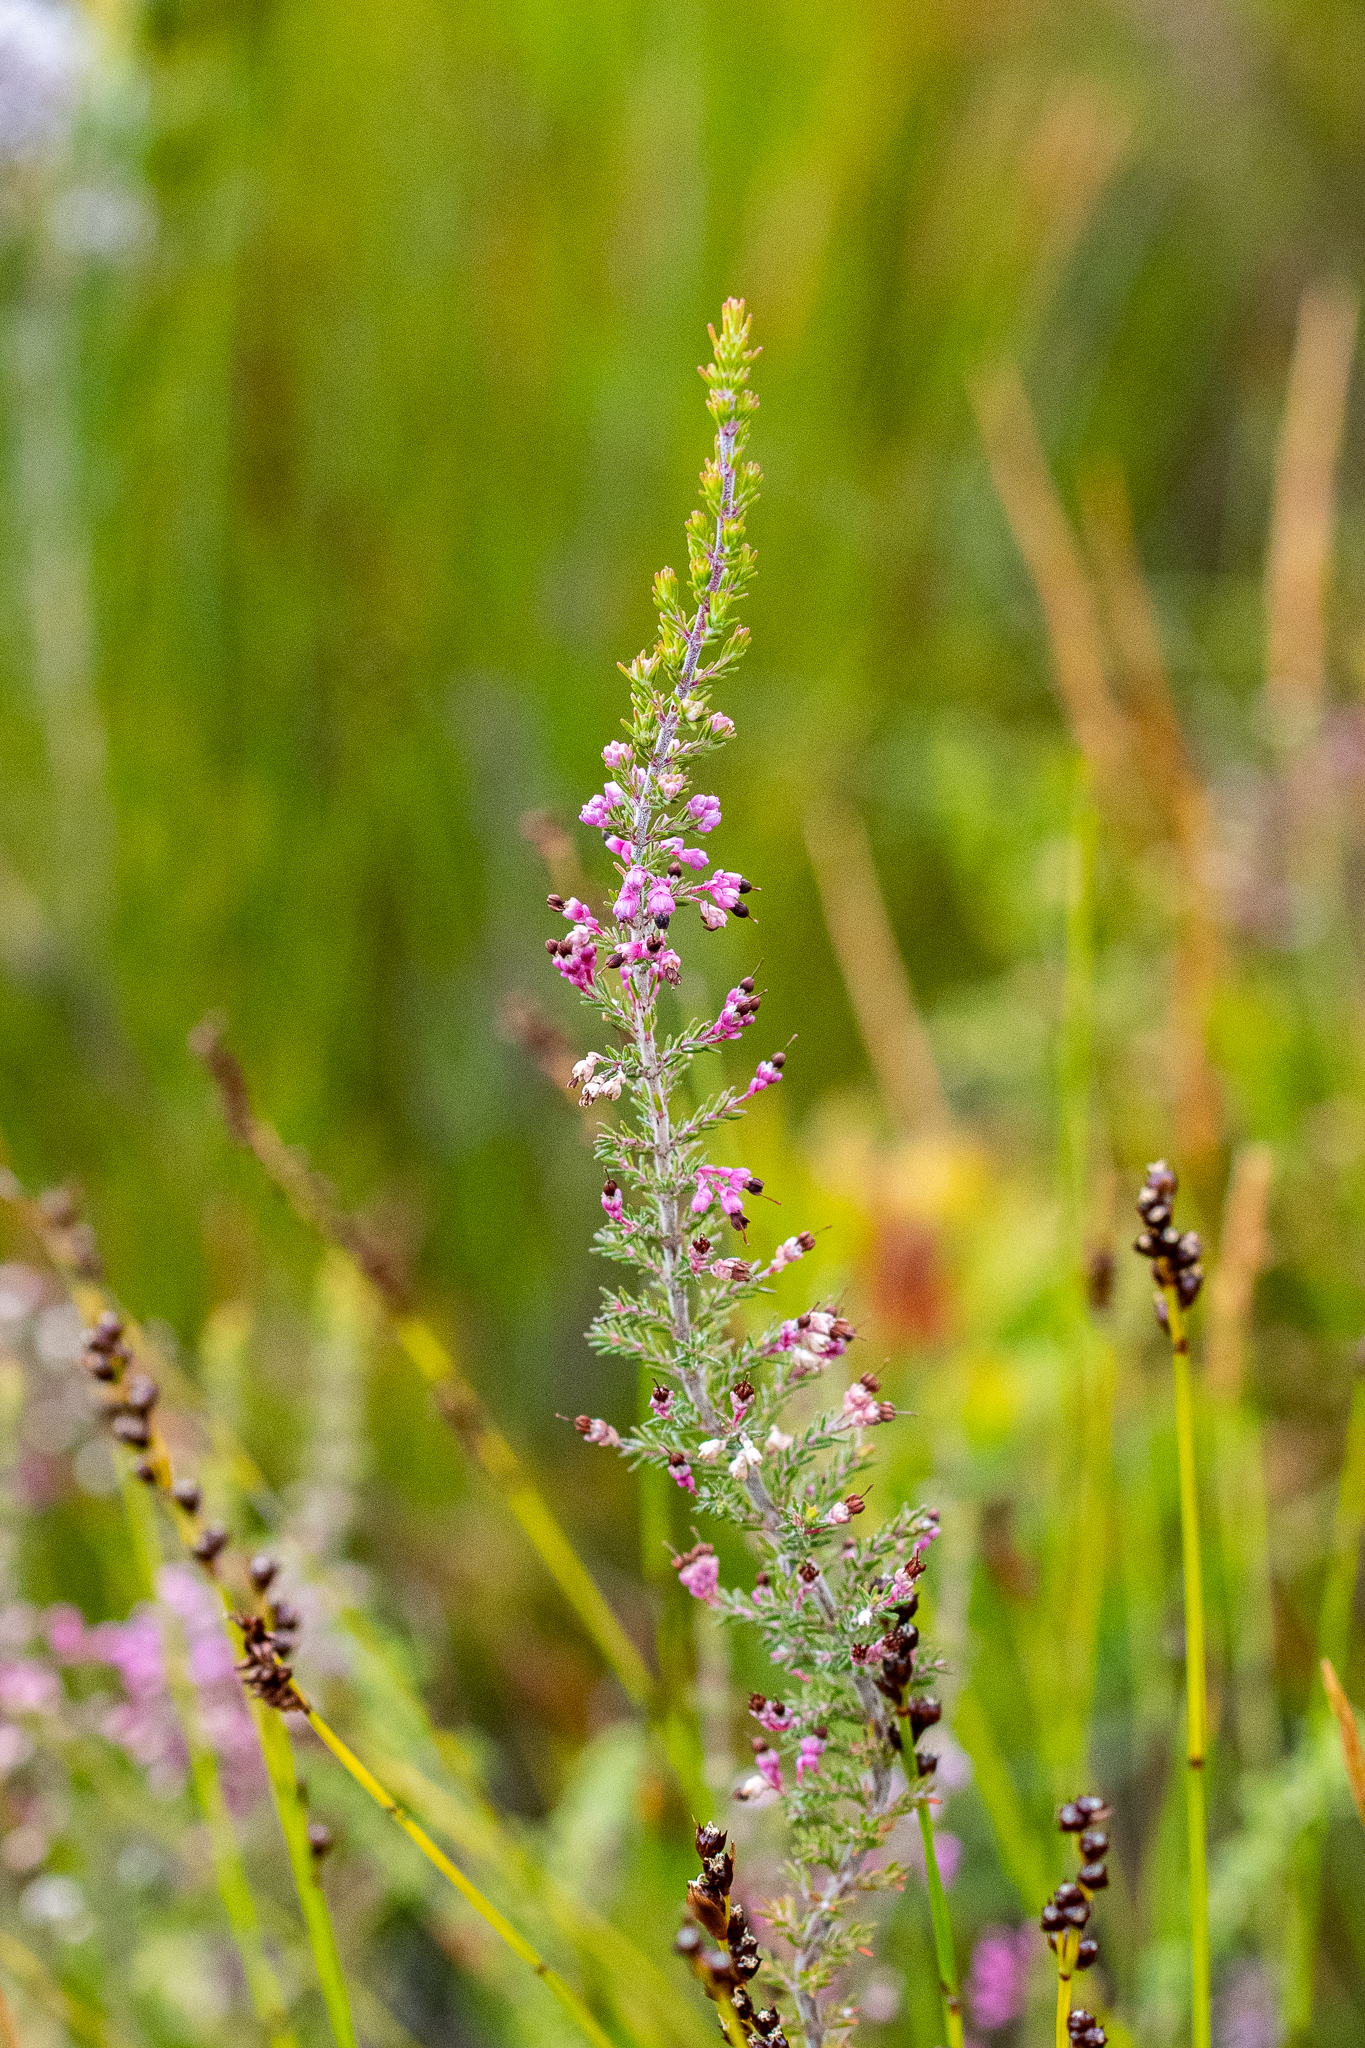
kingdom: Plantae
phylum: Tracheophyta
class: Magnoliopsida
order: Ericales
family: Ericaceae
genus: Erica
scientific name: Erica placentiflora
